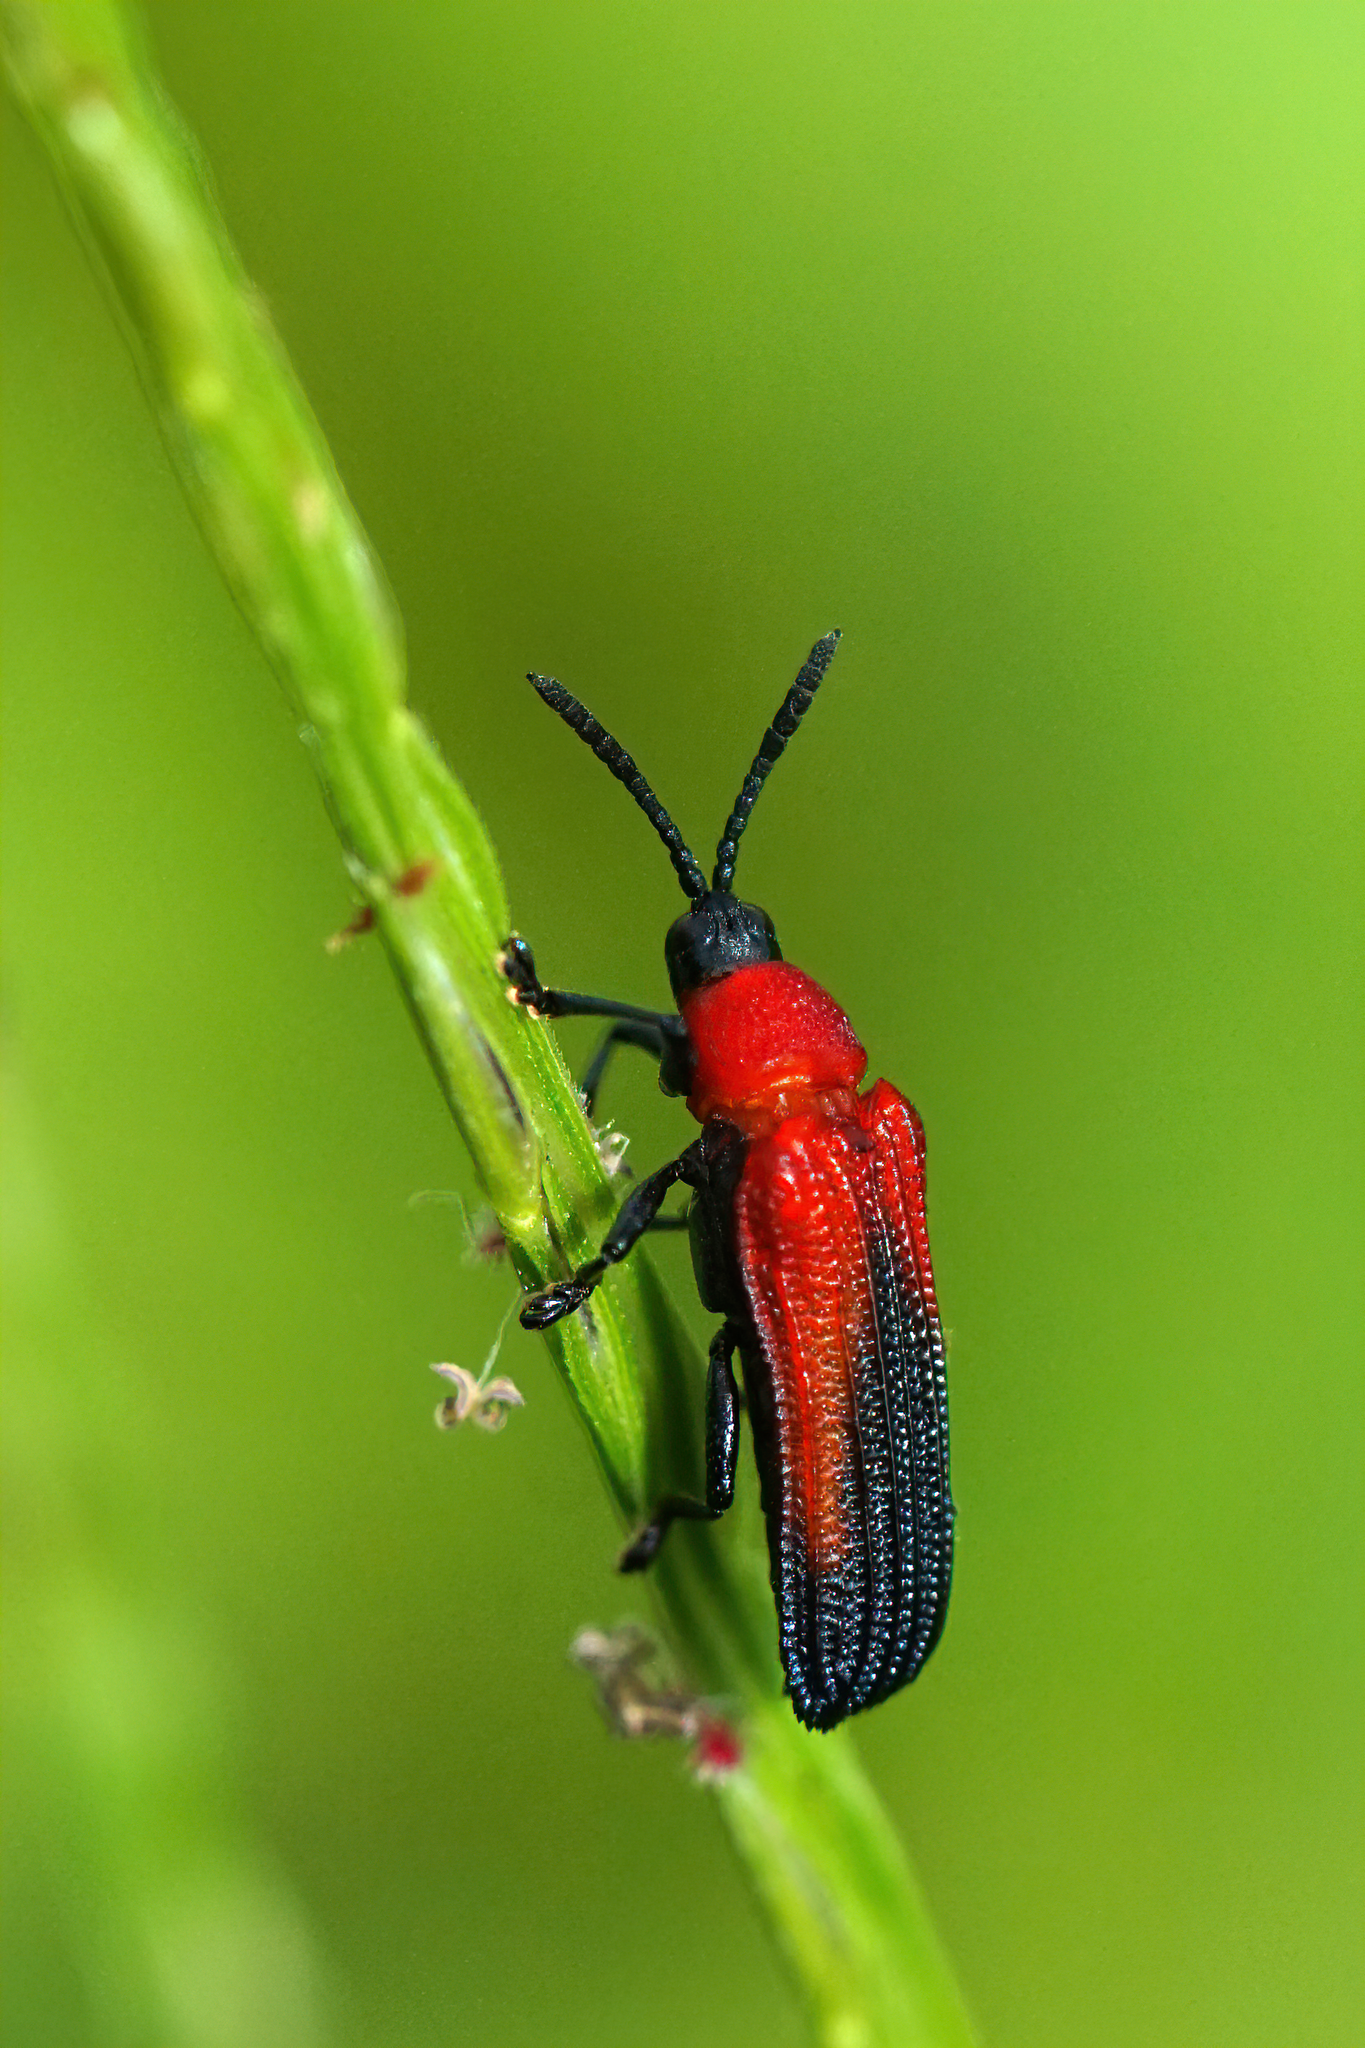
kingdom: Animalia
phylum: Arthropoda
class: Insecta
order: Coleoptera
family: Chrysomelidae
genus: Chalepus
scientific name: Chalepus sanguinicollis
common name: Red-shouldered leaf beetle
